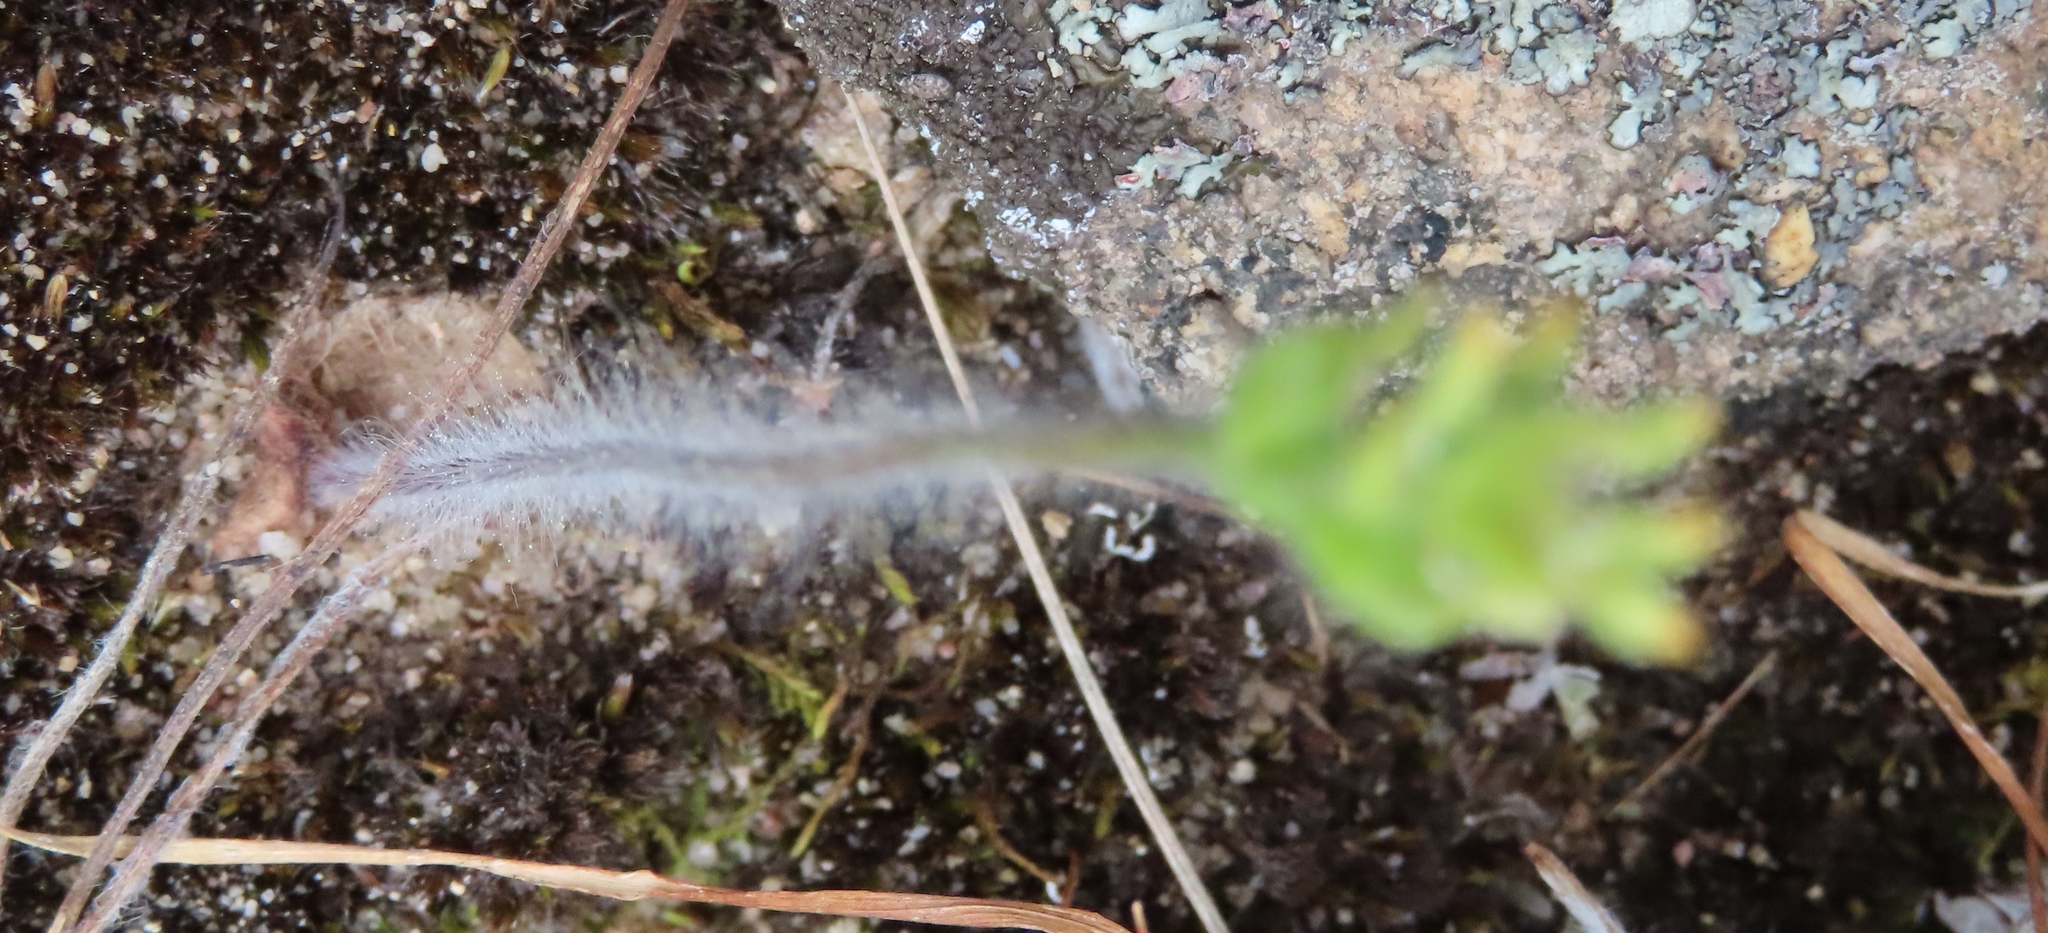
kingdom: Plantae
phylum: Tracheophyta
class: Liliopsida
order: Asparagales
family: Orchidaceae
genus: Holothrix
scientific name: Holothrix villosa
